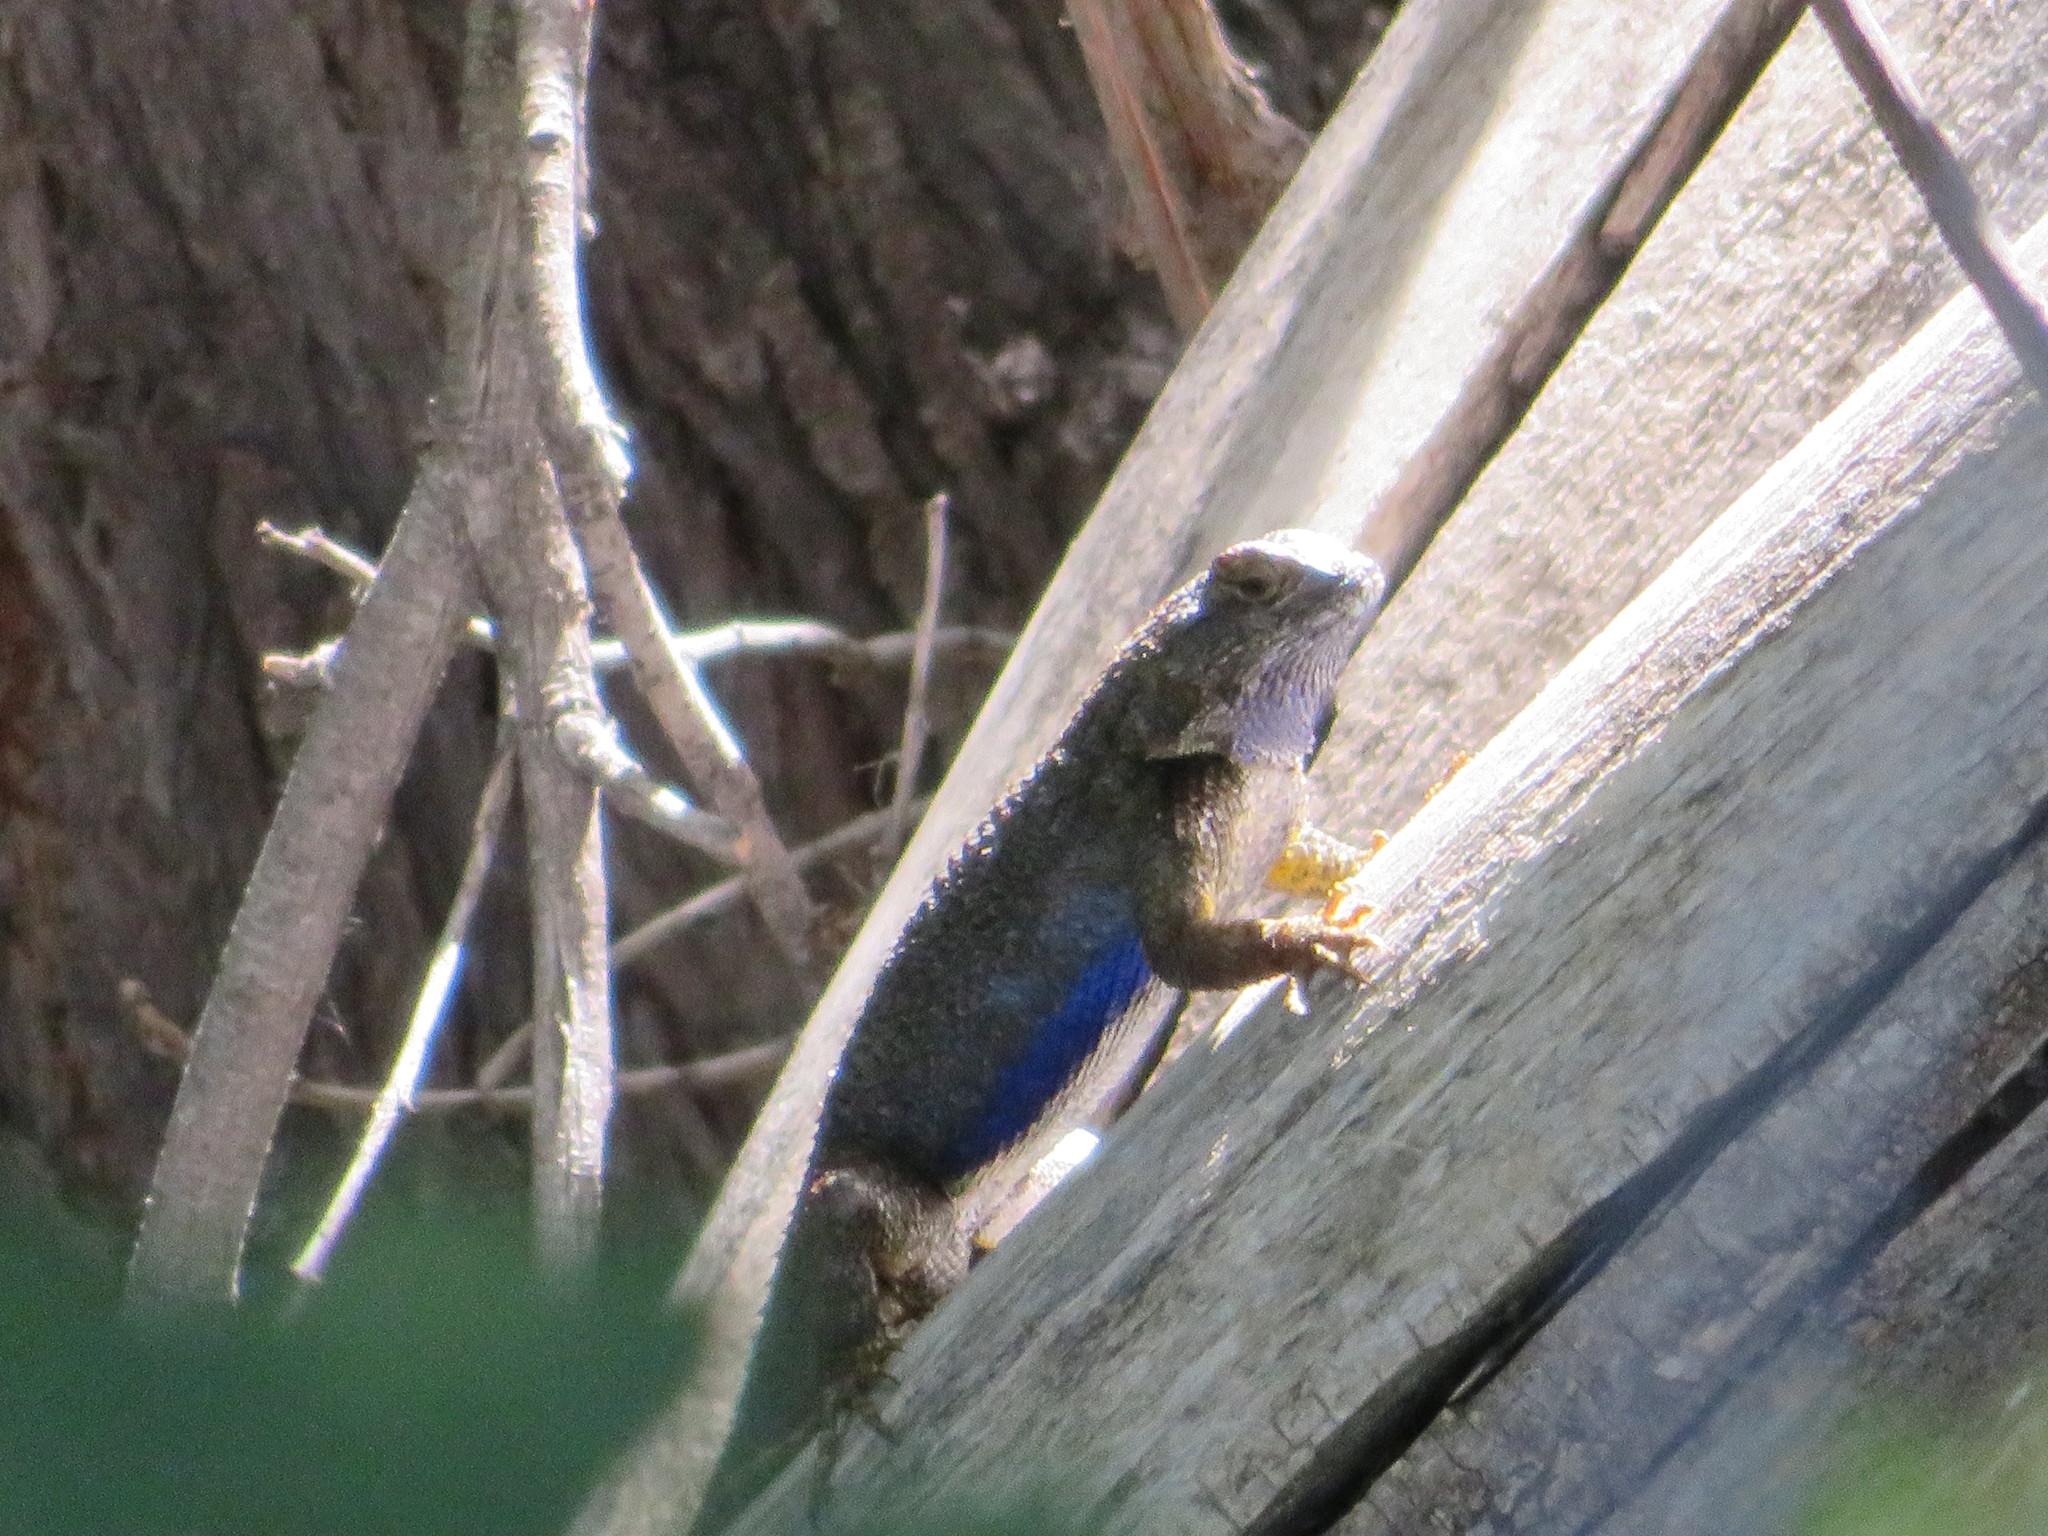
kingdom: Animalia
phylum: Chordata
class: Squamata
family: Phrynosomatidae
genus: Sceloporus
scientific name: Sceloporus occidentalis
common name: Western fence lizard
